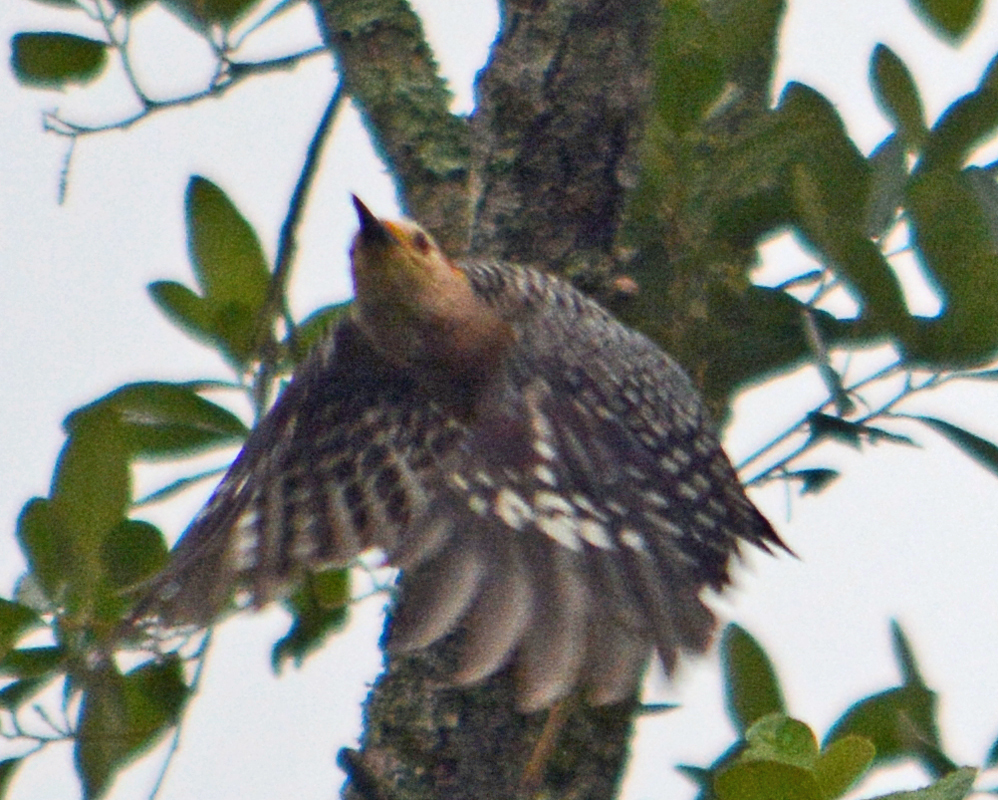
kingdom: Animalia
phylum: Chordata
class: Aves
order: Piciformes
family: Picidae
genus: Melanerpes
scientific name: Melanerpes aurifrons
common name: Golden-fronted woodpecker
